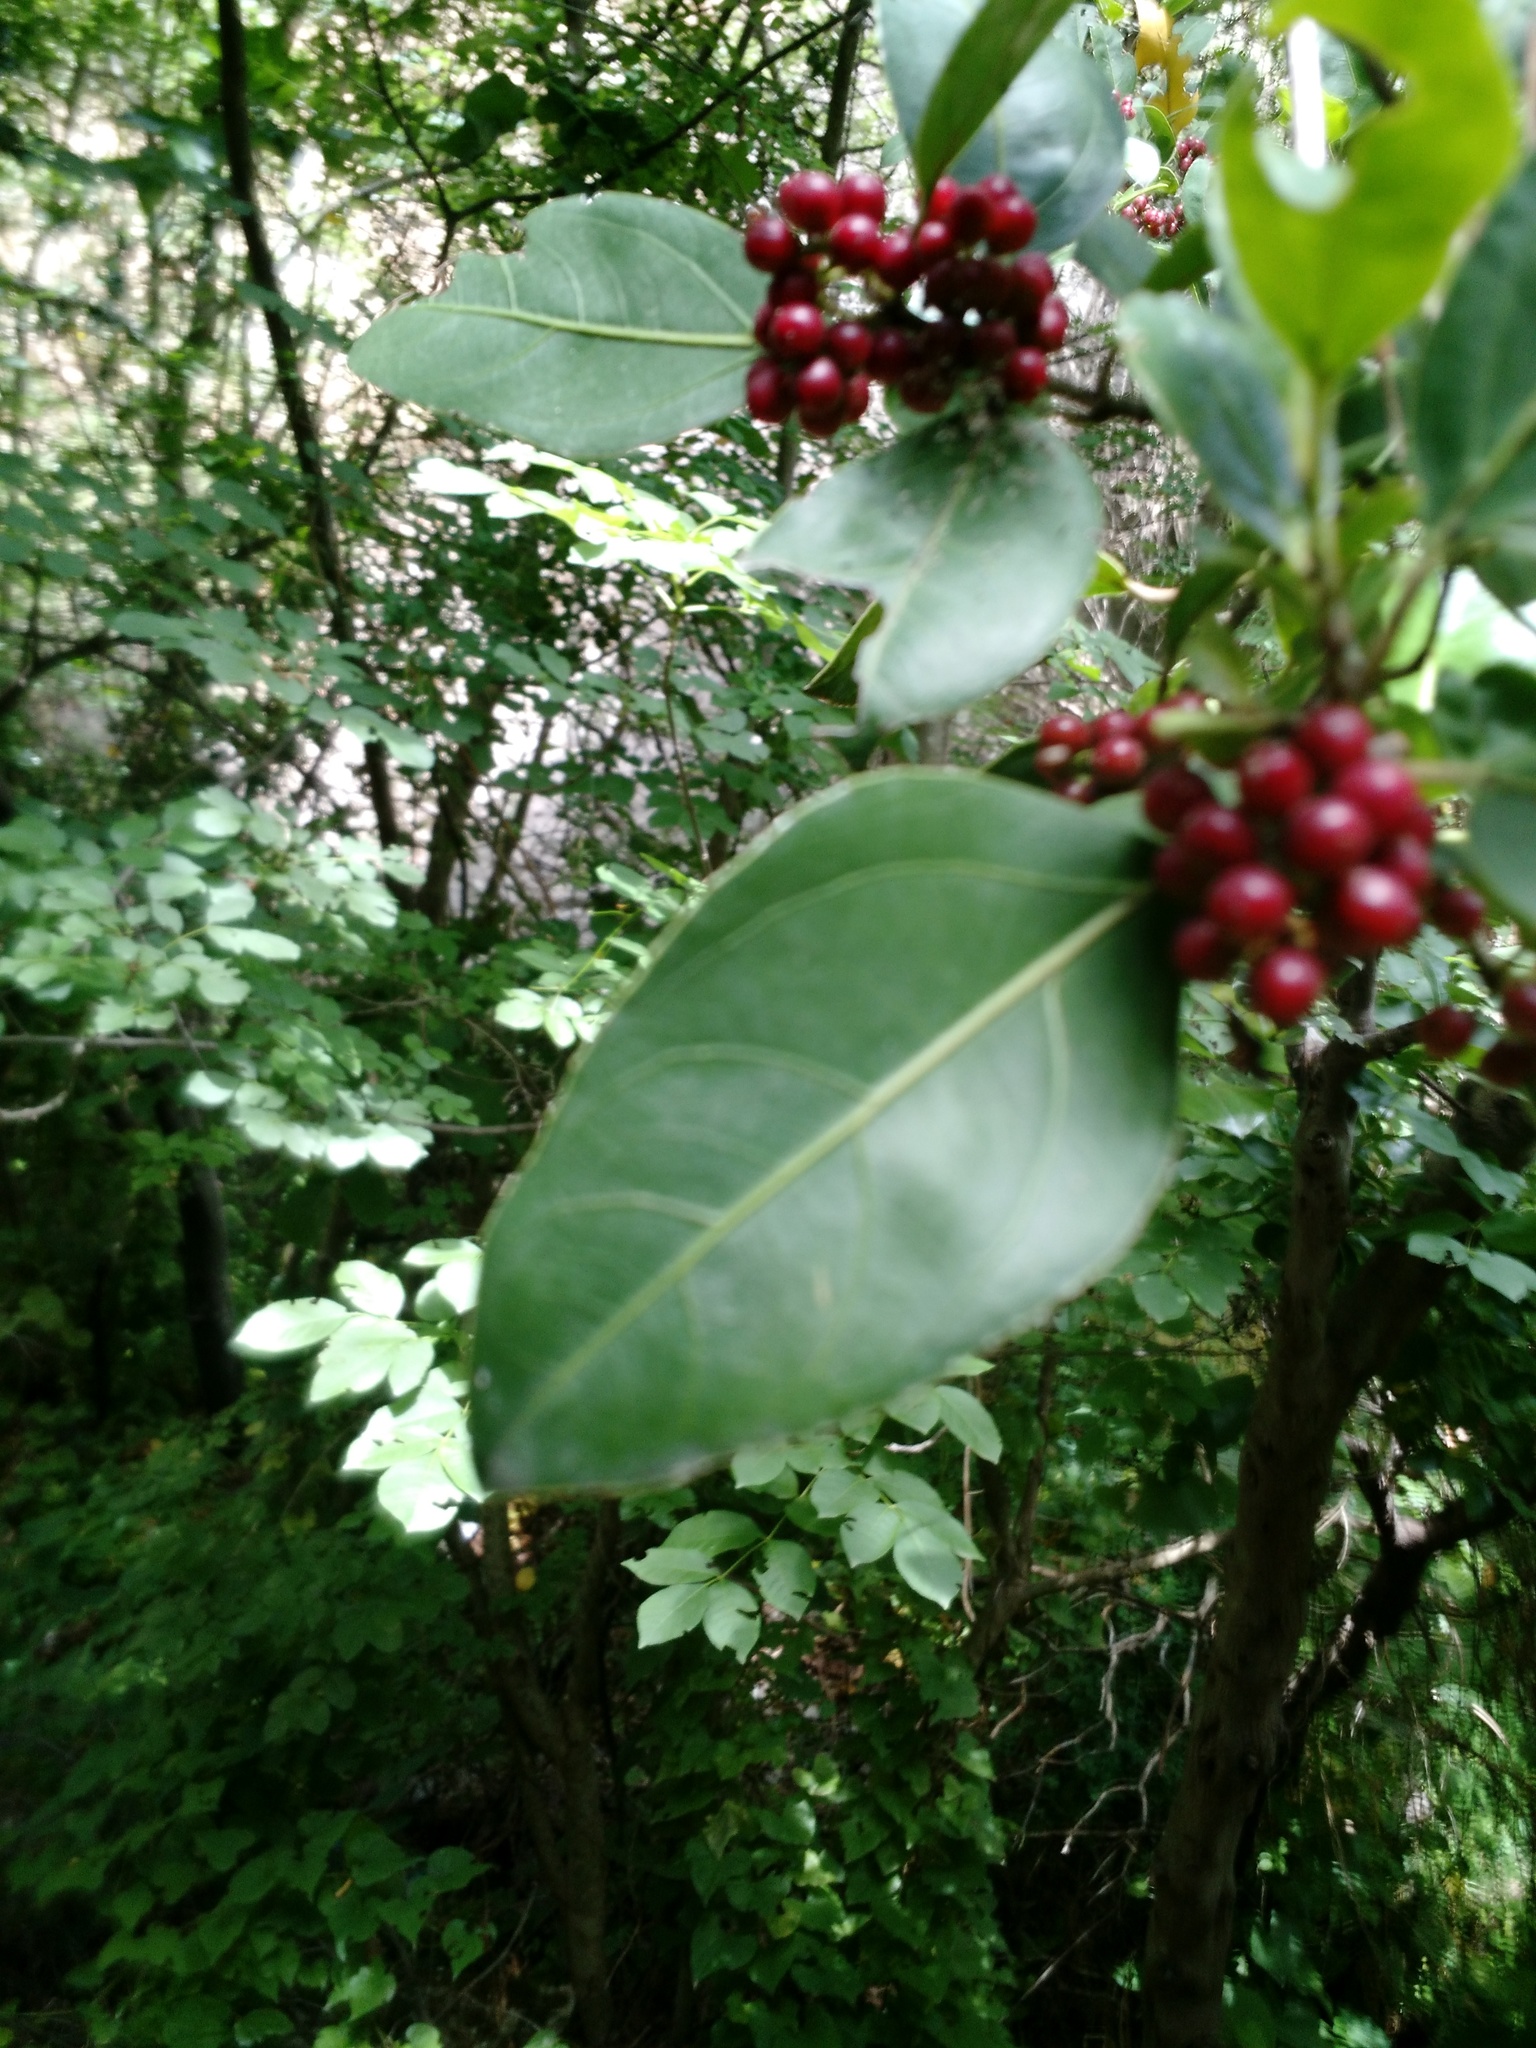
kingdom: Plantae
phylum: Tracheophyta
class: Magnoliopsida
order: Rosales
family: Rhamnaceae
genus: Rhamnus
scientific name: Rhamnus alaternus
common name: Mediterranean buckthorn
